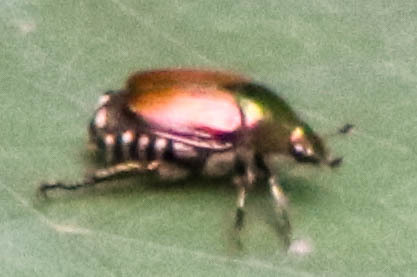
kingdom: Animalia
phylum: Arthropoda
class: Insecta
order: Coleoptera
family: Scarabaeidae
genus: Popillia
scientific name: Popillia japonica
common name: Japanese beetle
